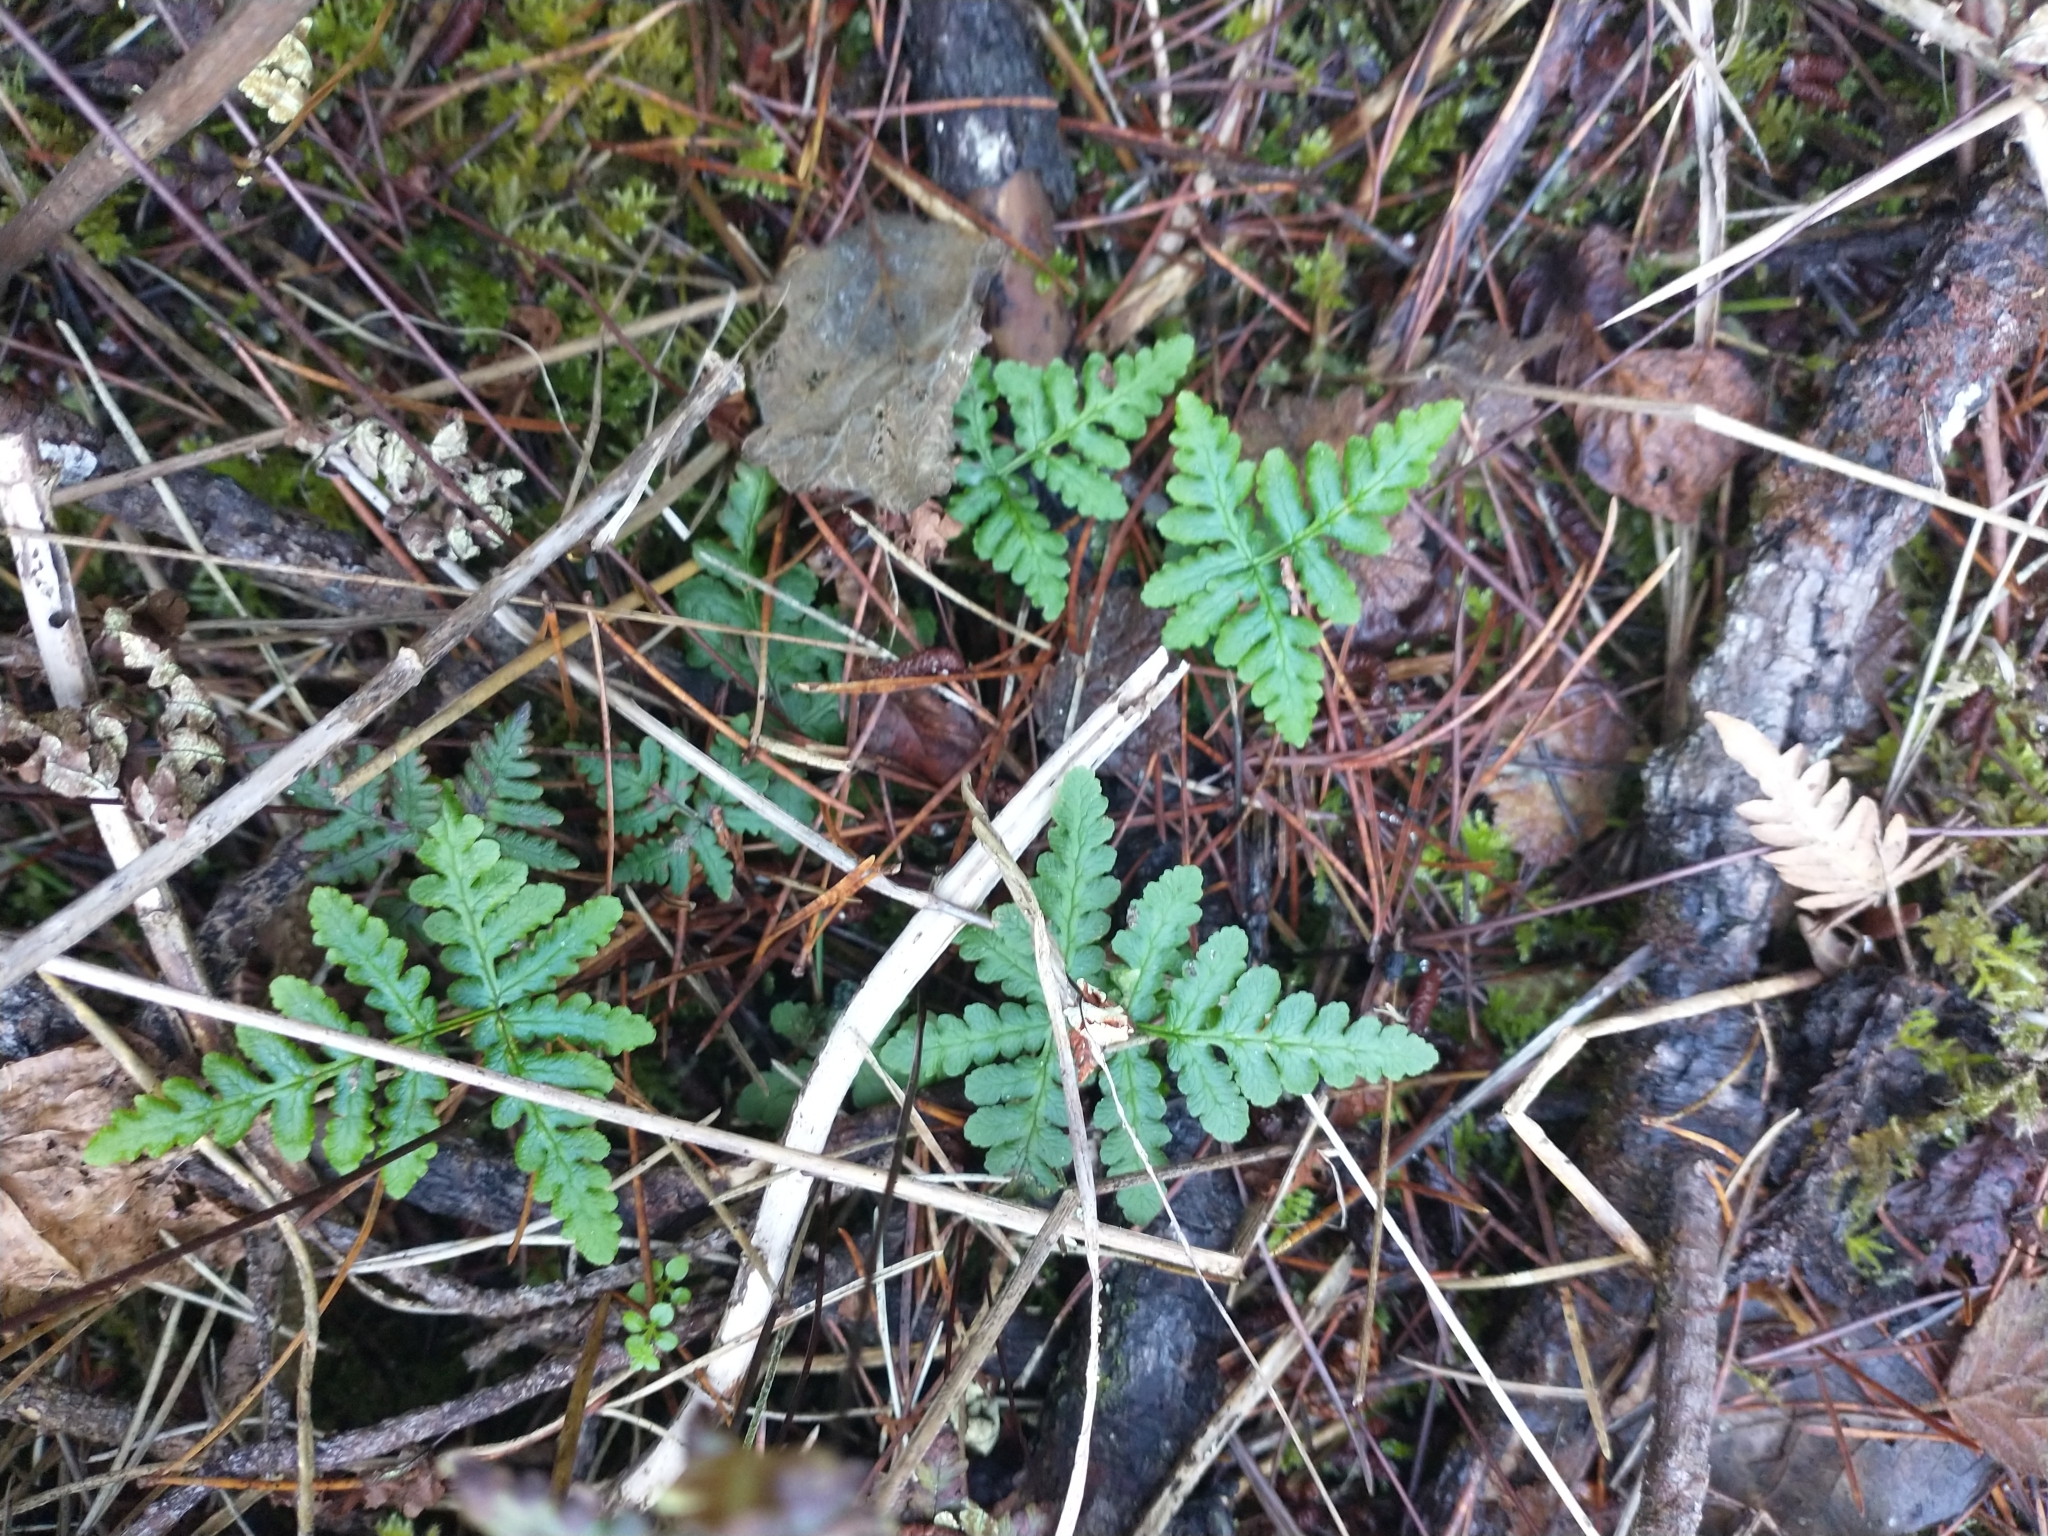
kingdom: Plantae
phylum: Tracheophyta
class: Polypodiopsida
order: Polypodiales
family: Pteridaceae
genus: Pentagramma
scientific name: Pentagramma triangularis
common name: Gold fern
